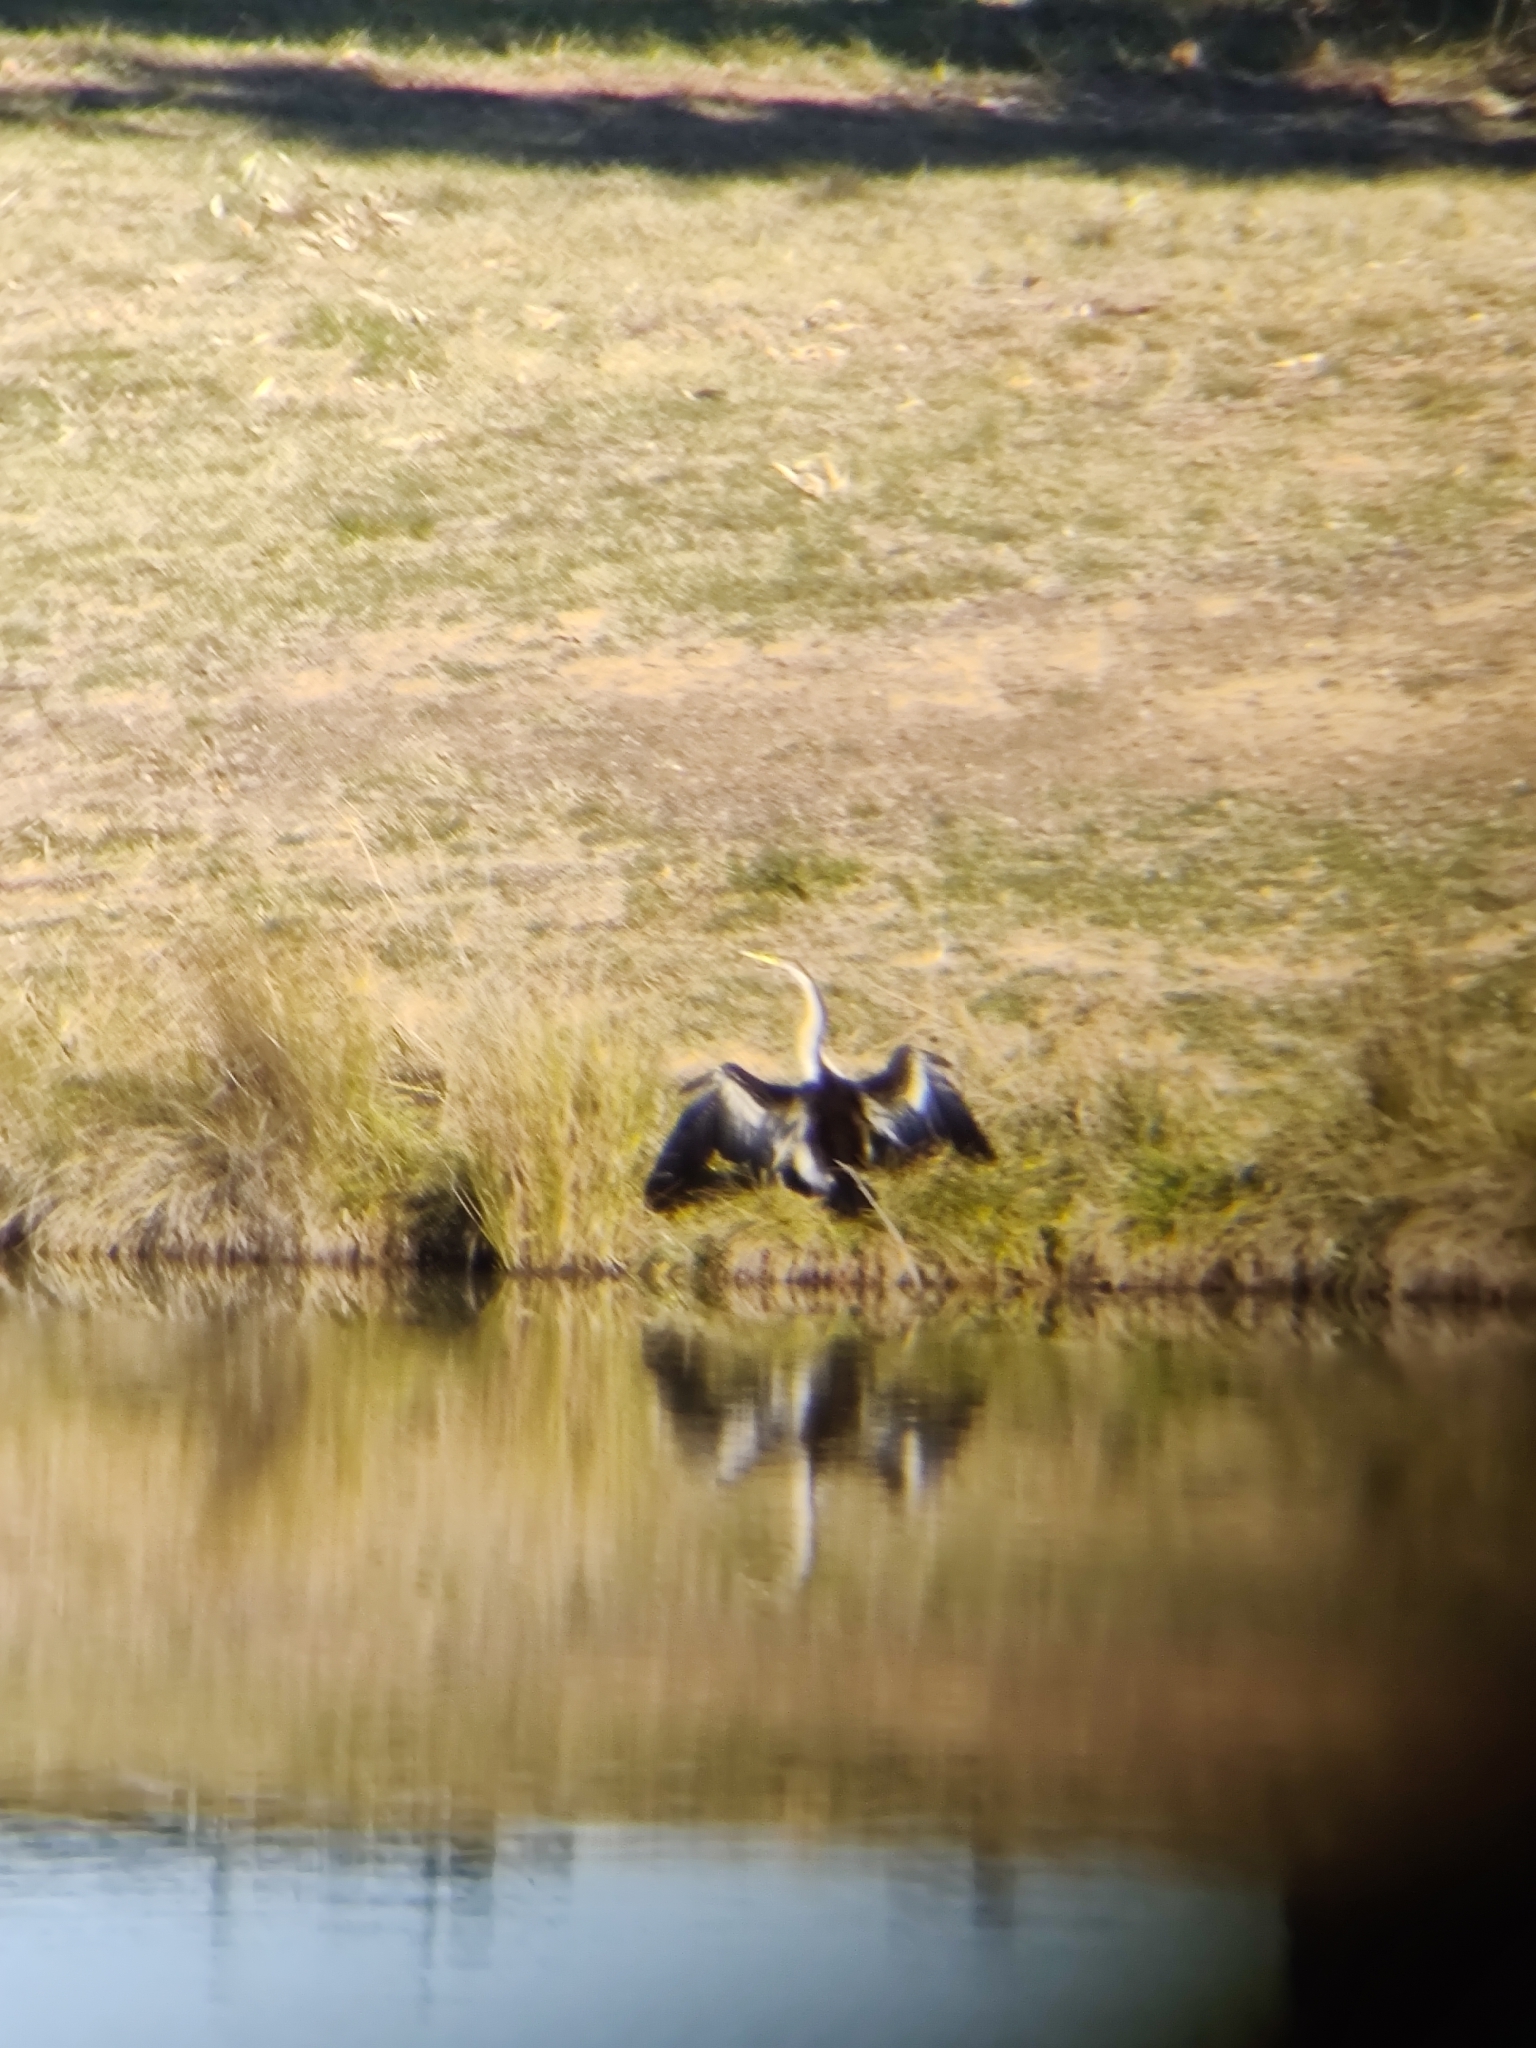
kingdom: Animalia
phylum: Chordata
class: Aves
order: Suliformes
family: Anhingidae
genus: Anhinga
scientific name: Anhinga novaehollandiae
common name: Australasian darter
